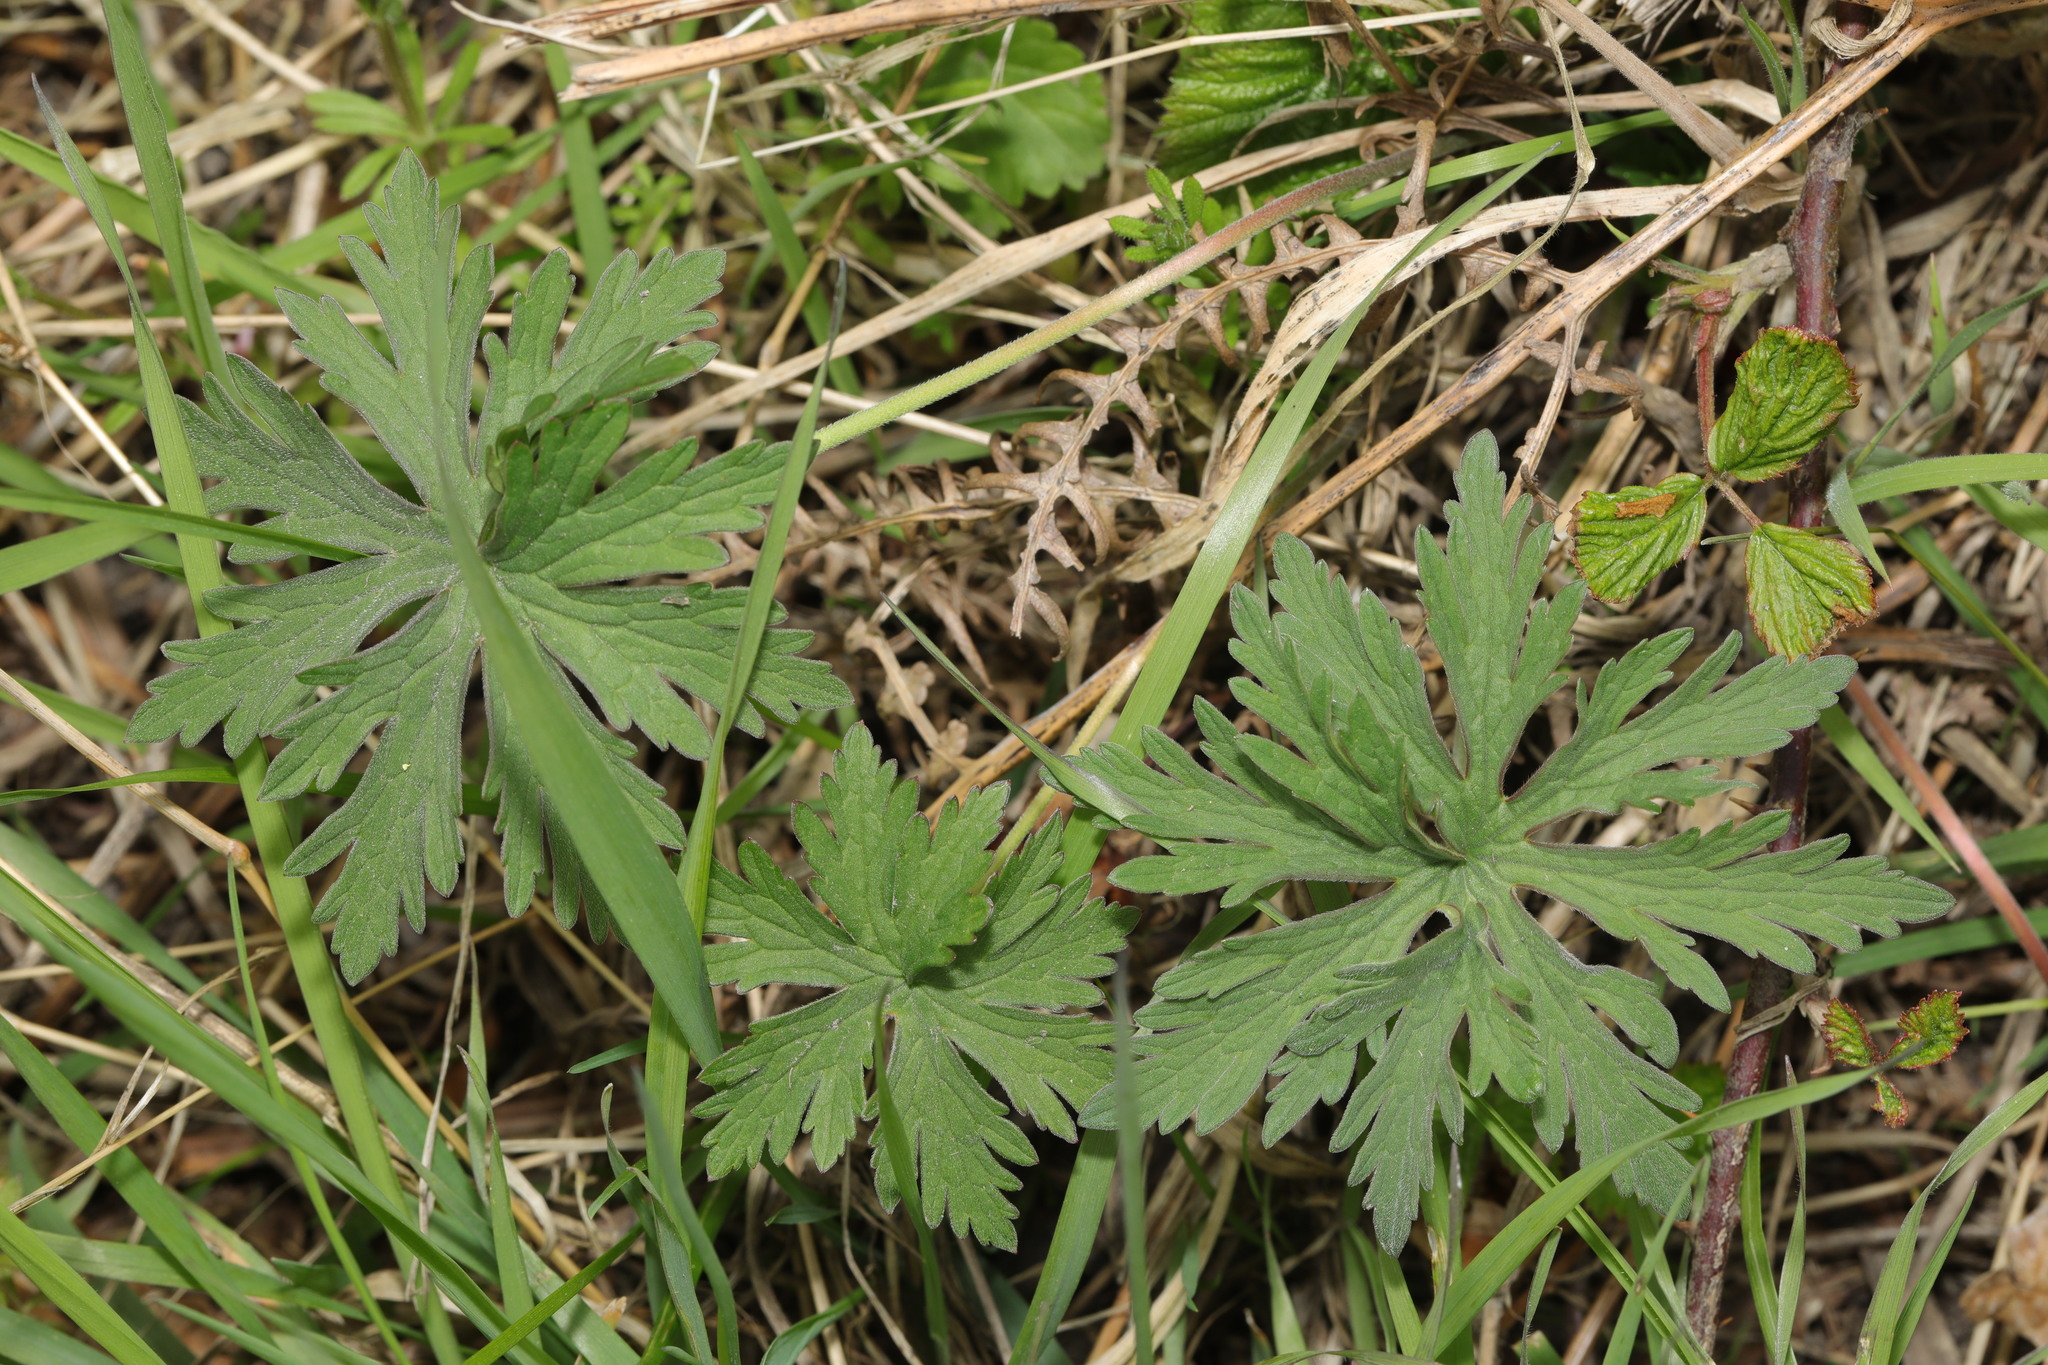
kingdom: Plantae
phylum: Tracheophyta
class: Magnoliopsida
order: Geraniales
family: Geraniaceae
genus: Geranium
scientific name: Geranium pratense
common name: Meadow crane's-bill
